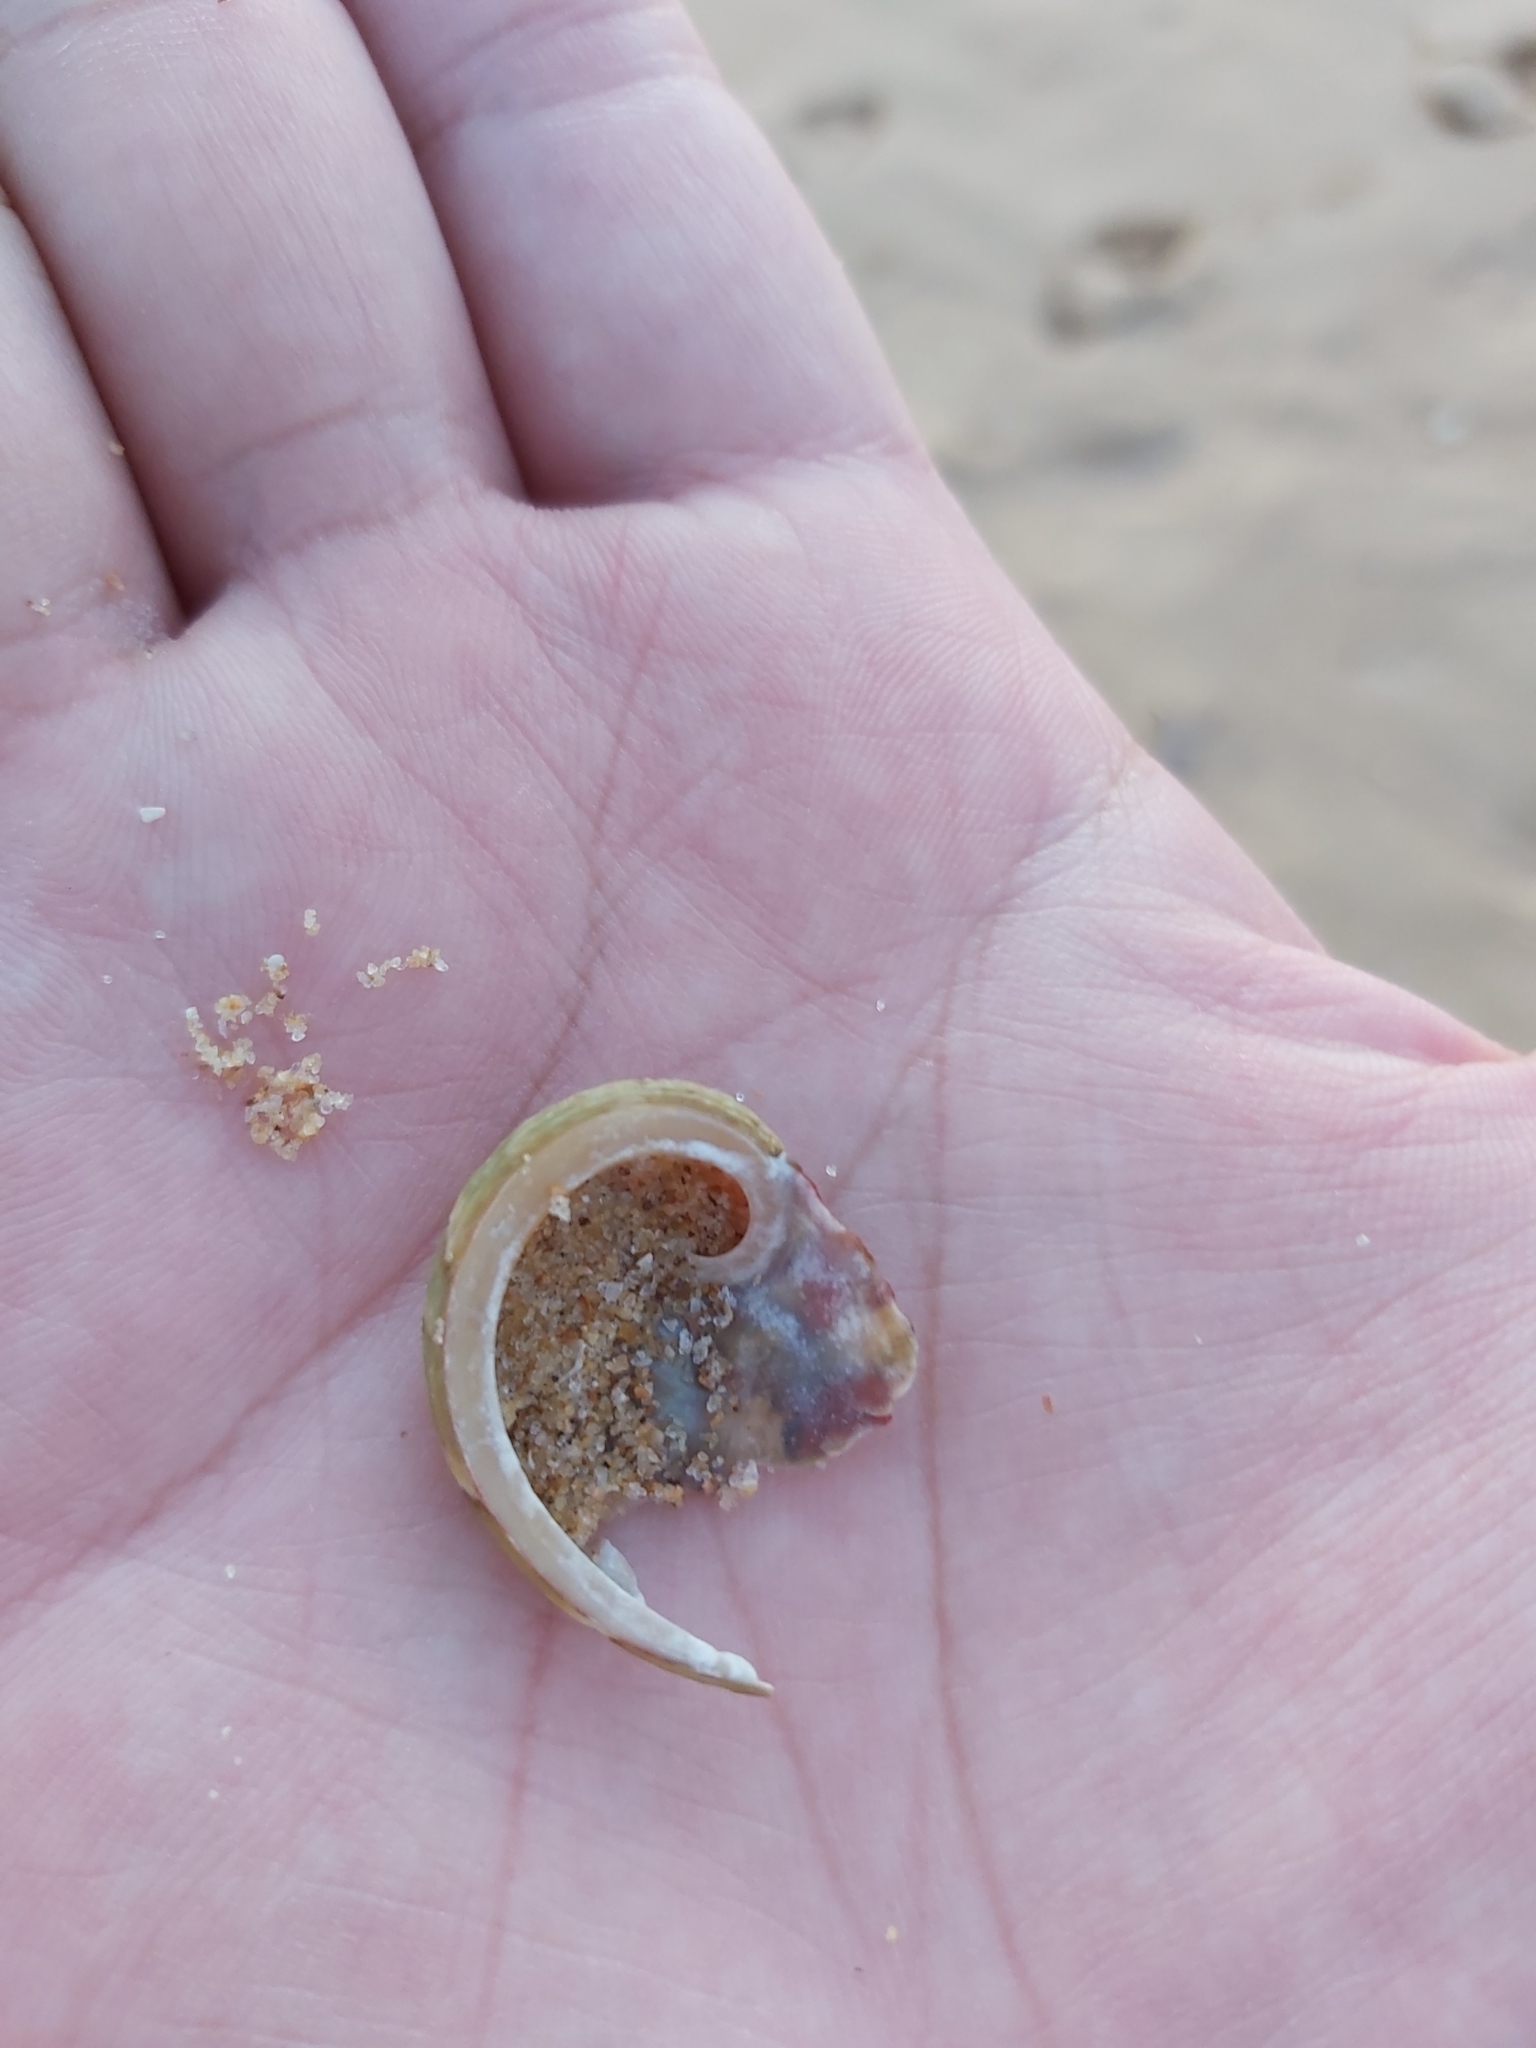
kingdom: Animalia
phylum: Mollusca
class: Gastropoda
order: Lepetellida
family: Haliotidae
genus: Haliotis
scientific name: Haliotis coccoradiata
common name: Reddish-rayed abalone
